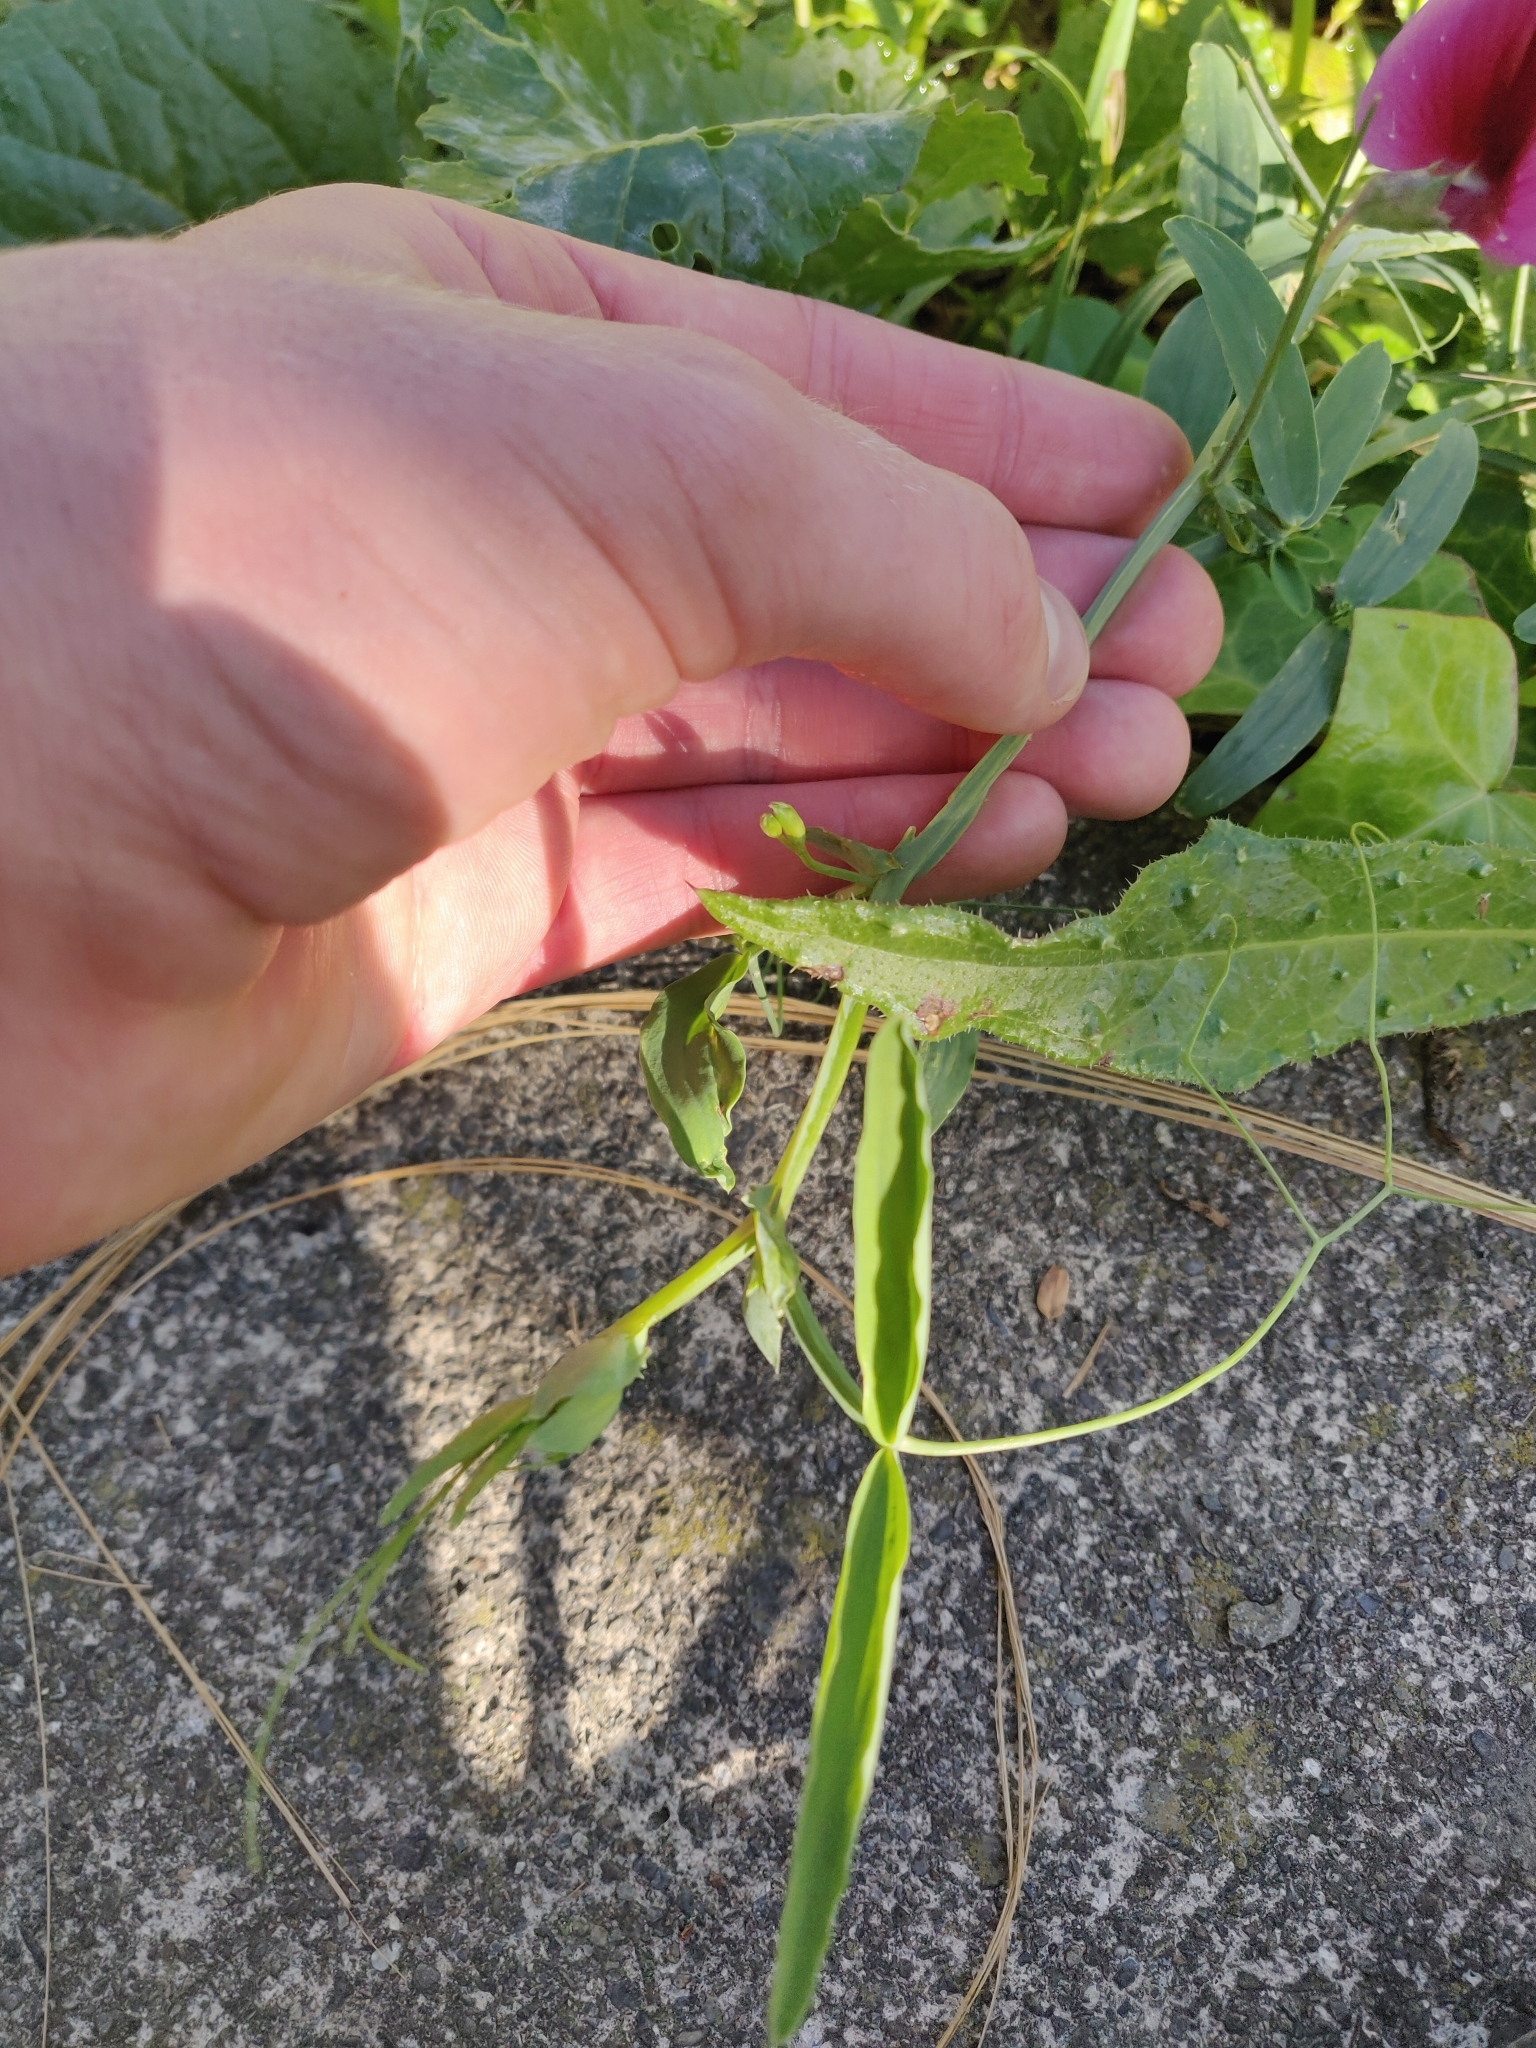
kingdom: Plantae
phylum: Tracheophyta
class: Magnoliopsida
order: Fabales
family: Fabaceae
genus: Lathyrus
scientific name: Lathyrus tingitanus
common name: Tangier pea
